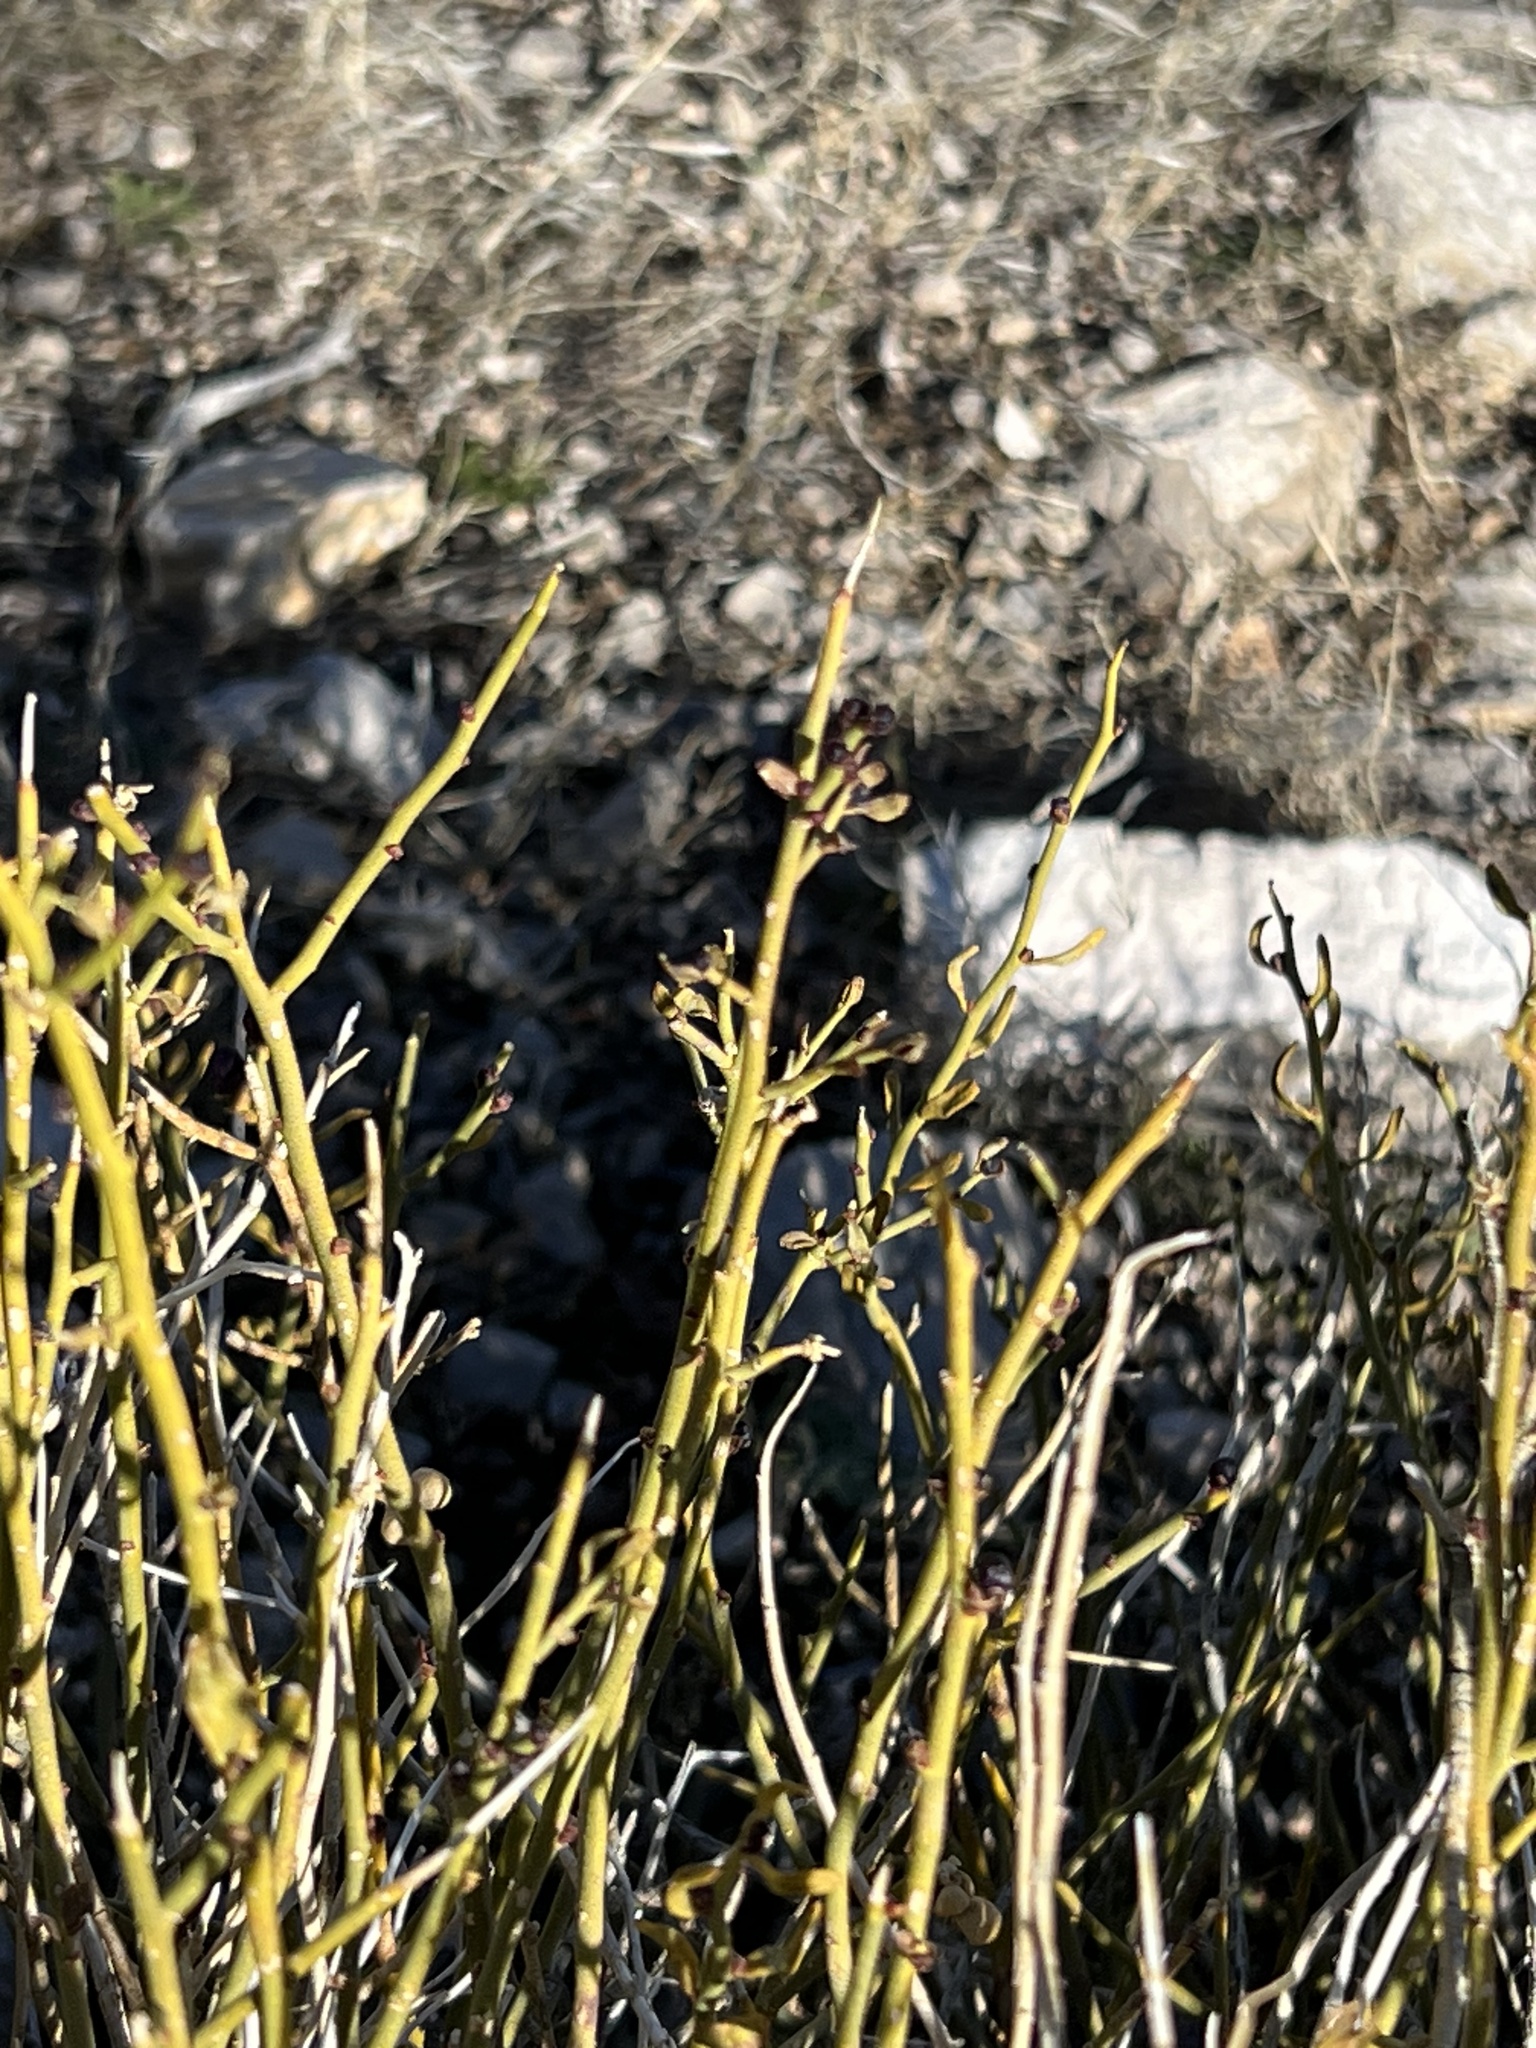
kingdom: Plantae
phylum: Tracheophyta
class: Magnoliopsida
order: Sapindales
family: Rutaceae
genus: Thamnosma
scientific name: Thamnosma montana
